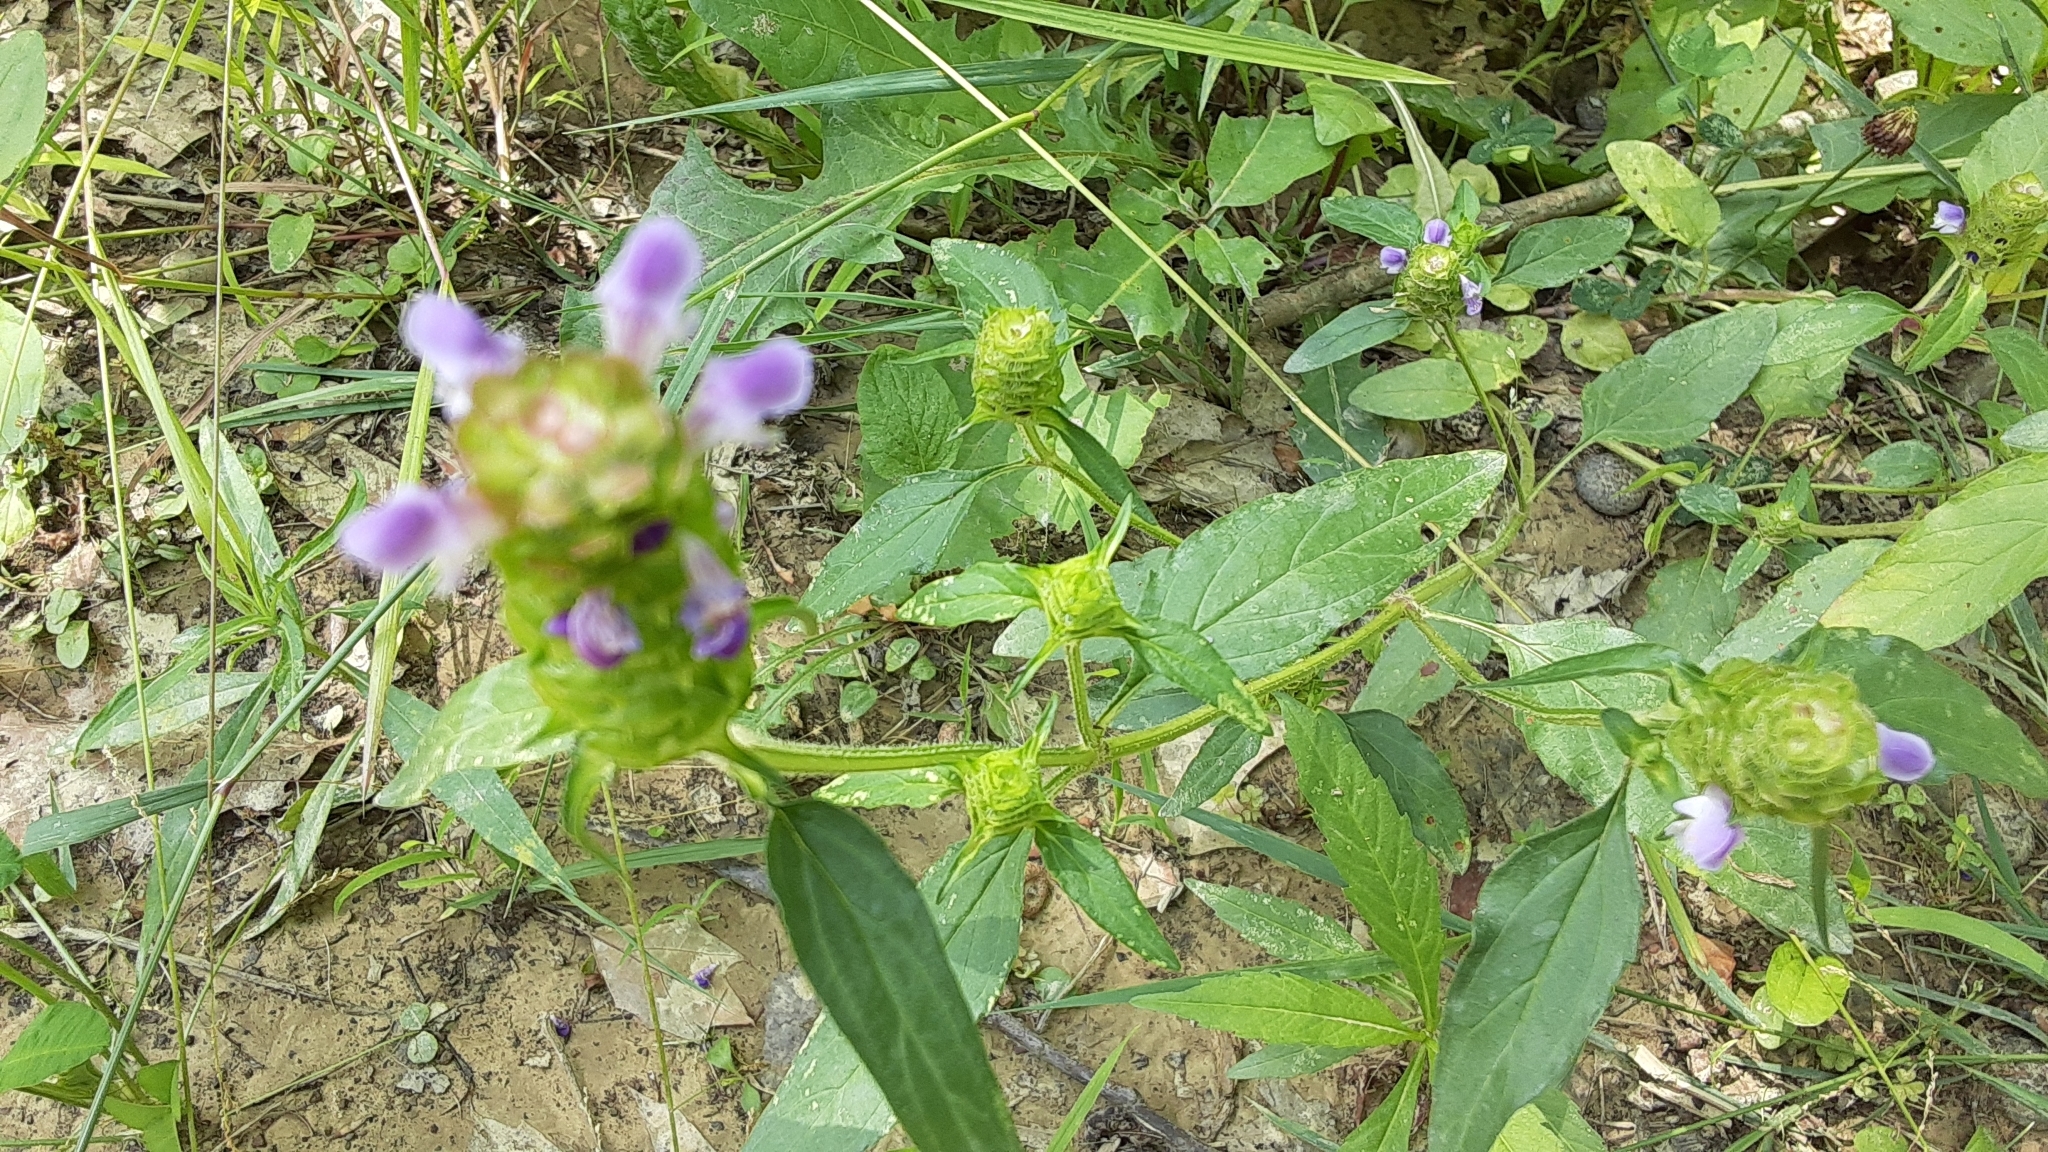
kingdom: Plantae
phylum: Tracheophyta
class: Magnoliopsida
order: Lamiales
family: Lamiaceae
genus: Prunella
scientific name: Prunella vulgaris
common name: Heal-all
